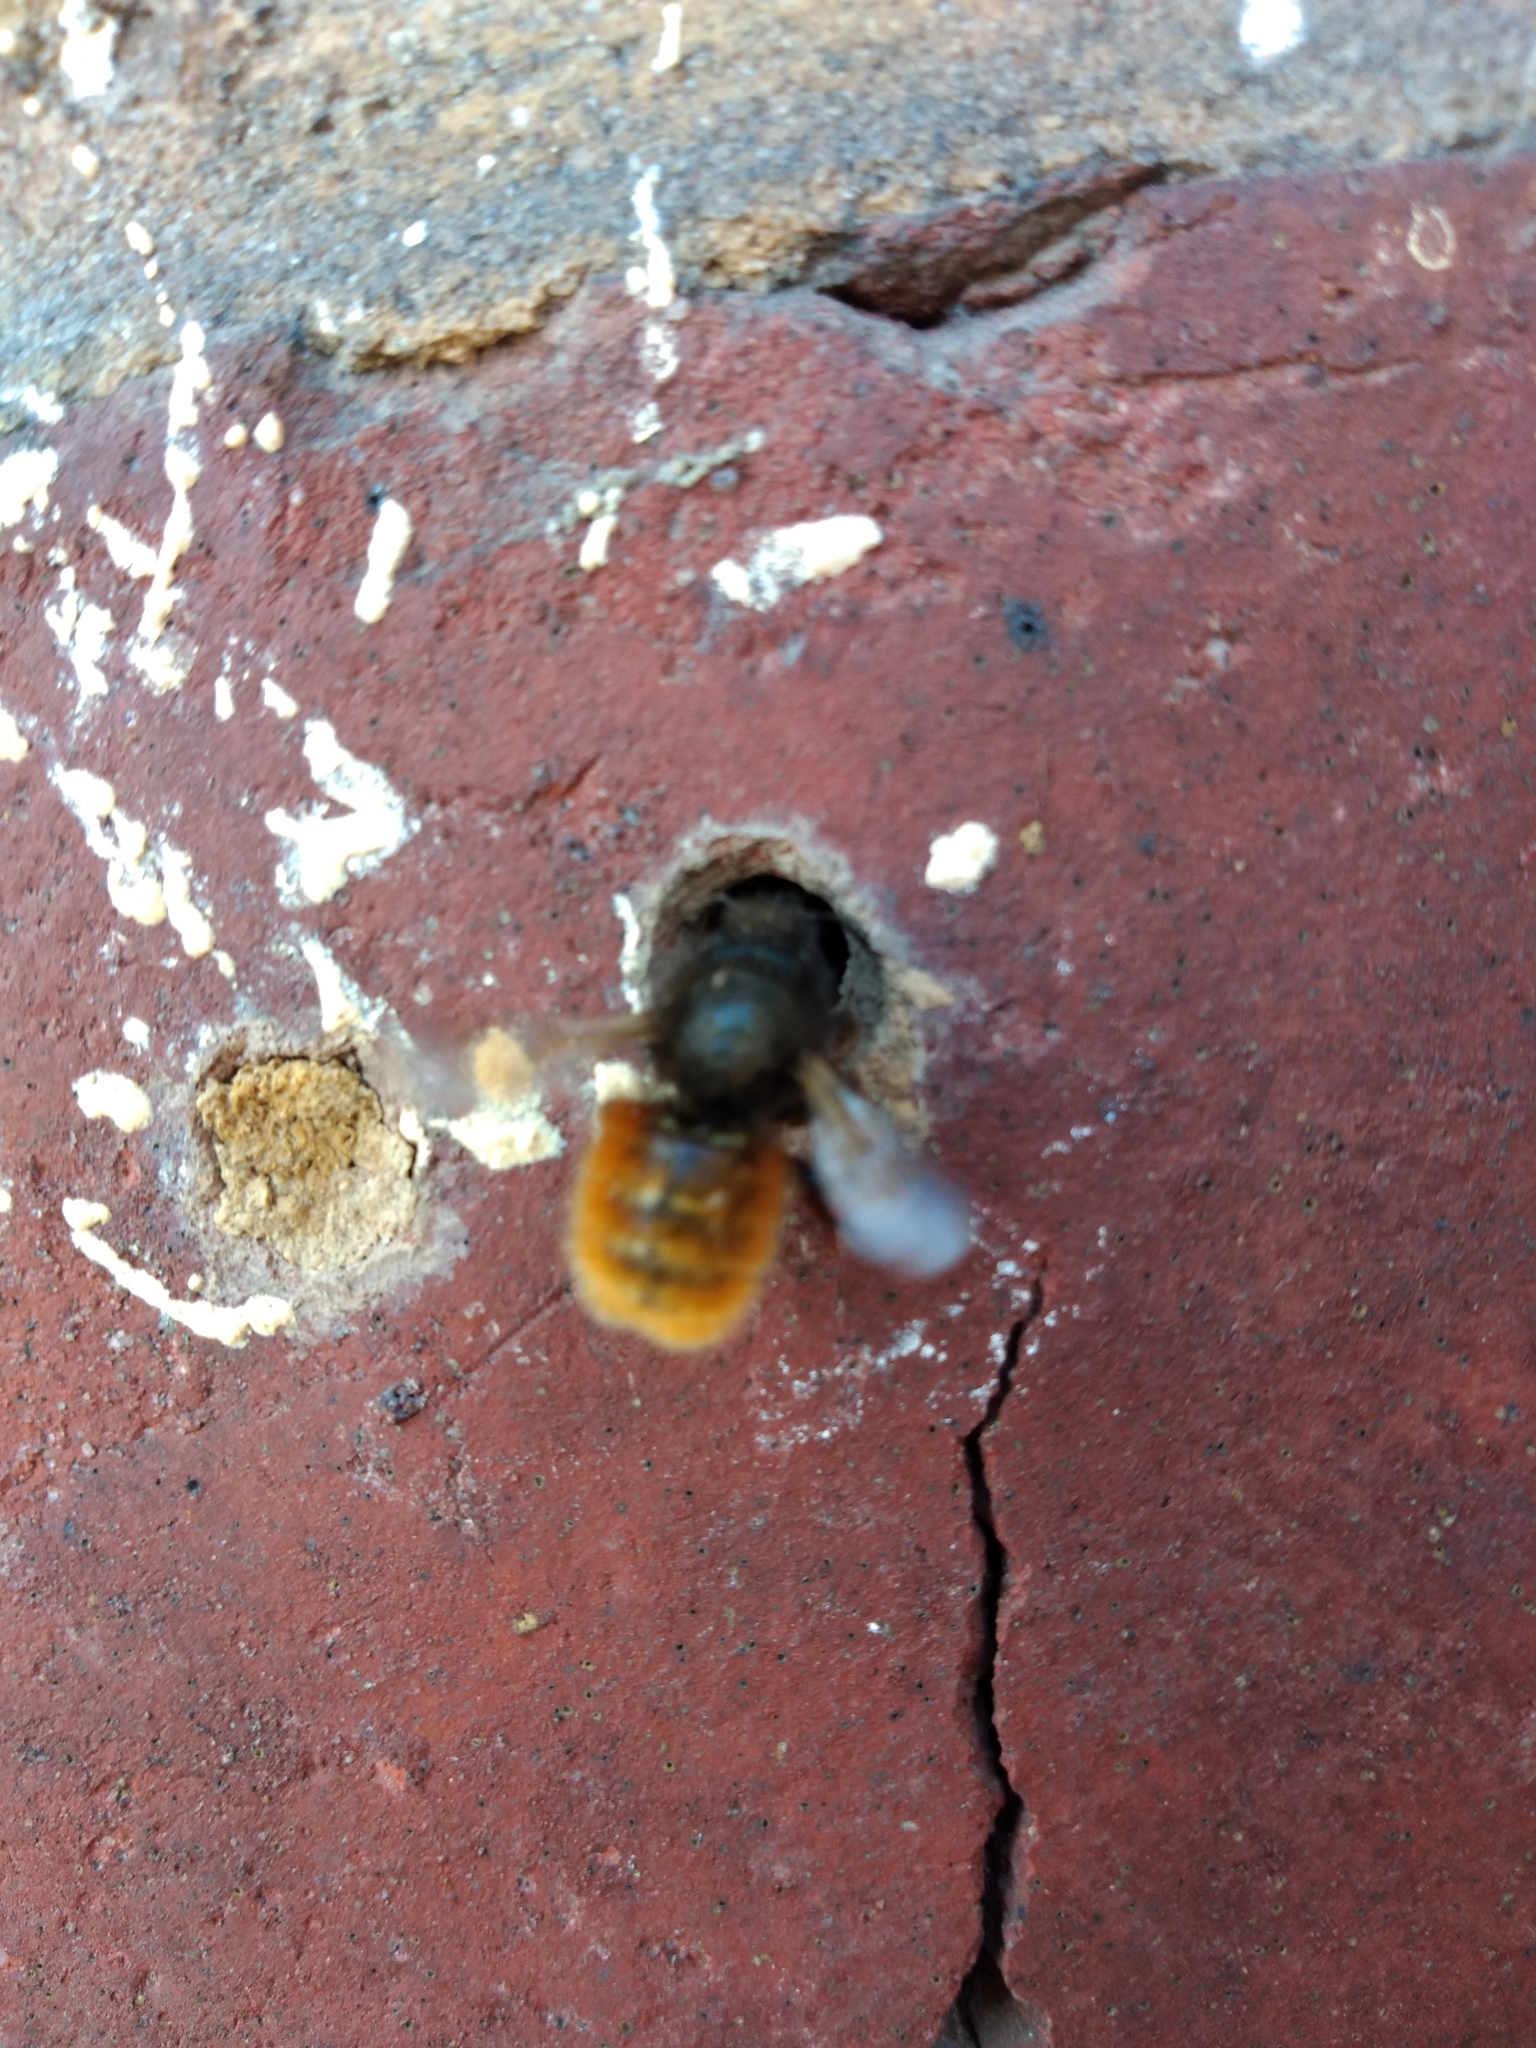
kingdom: Animalia
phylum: Arthropoda
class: Insecta
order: Hymenoptera
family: Megachilidae
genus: Osmia
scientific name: Osmia cornuta
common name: Mason bee
